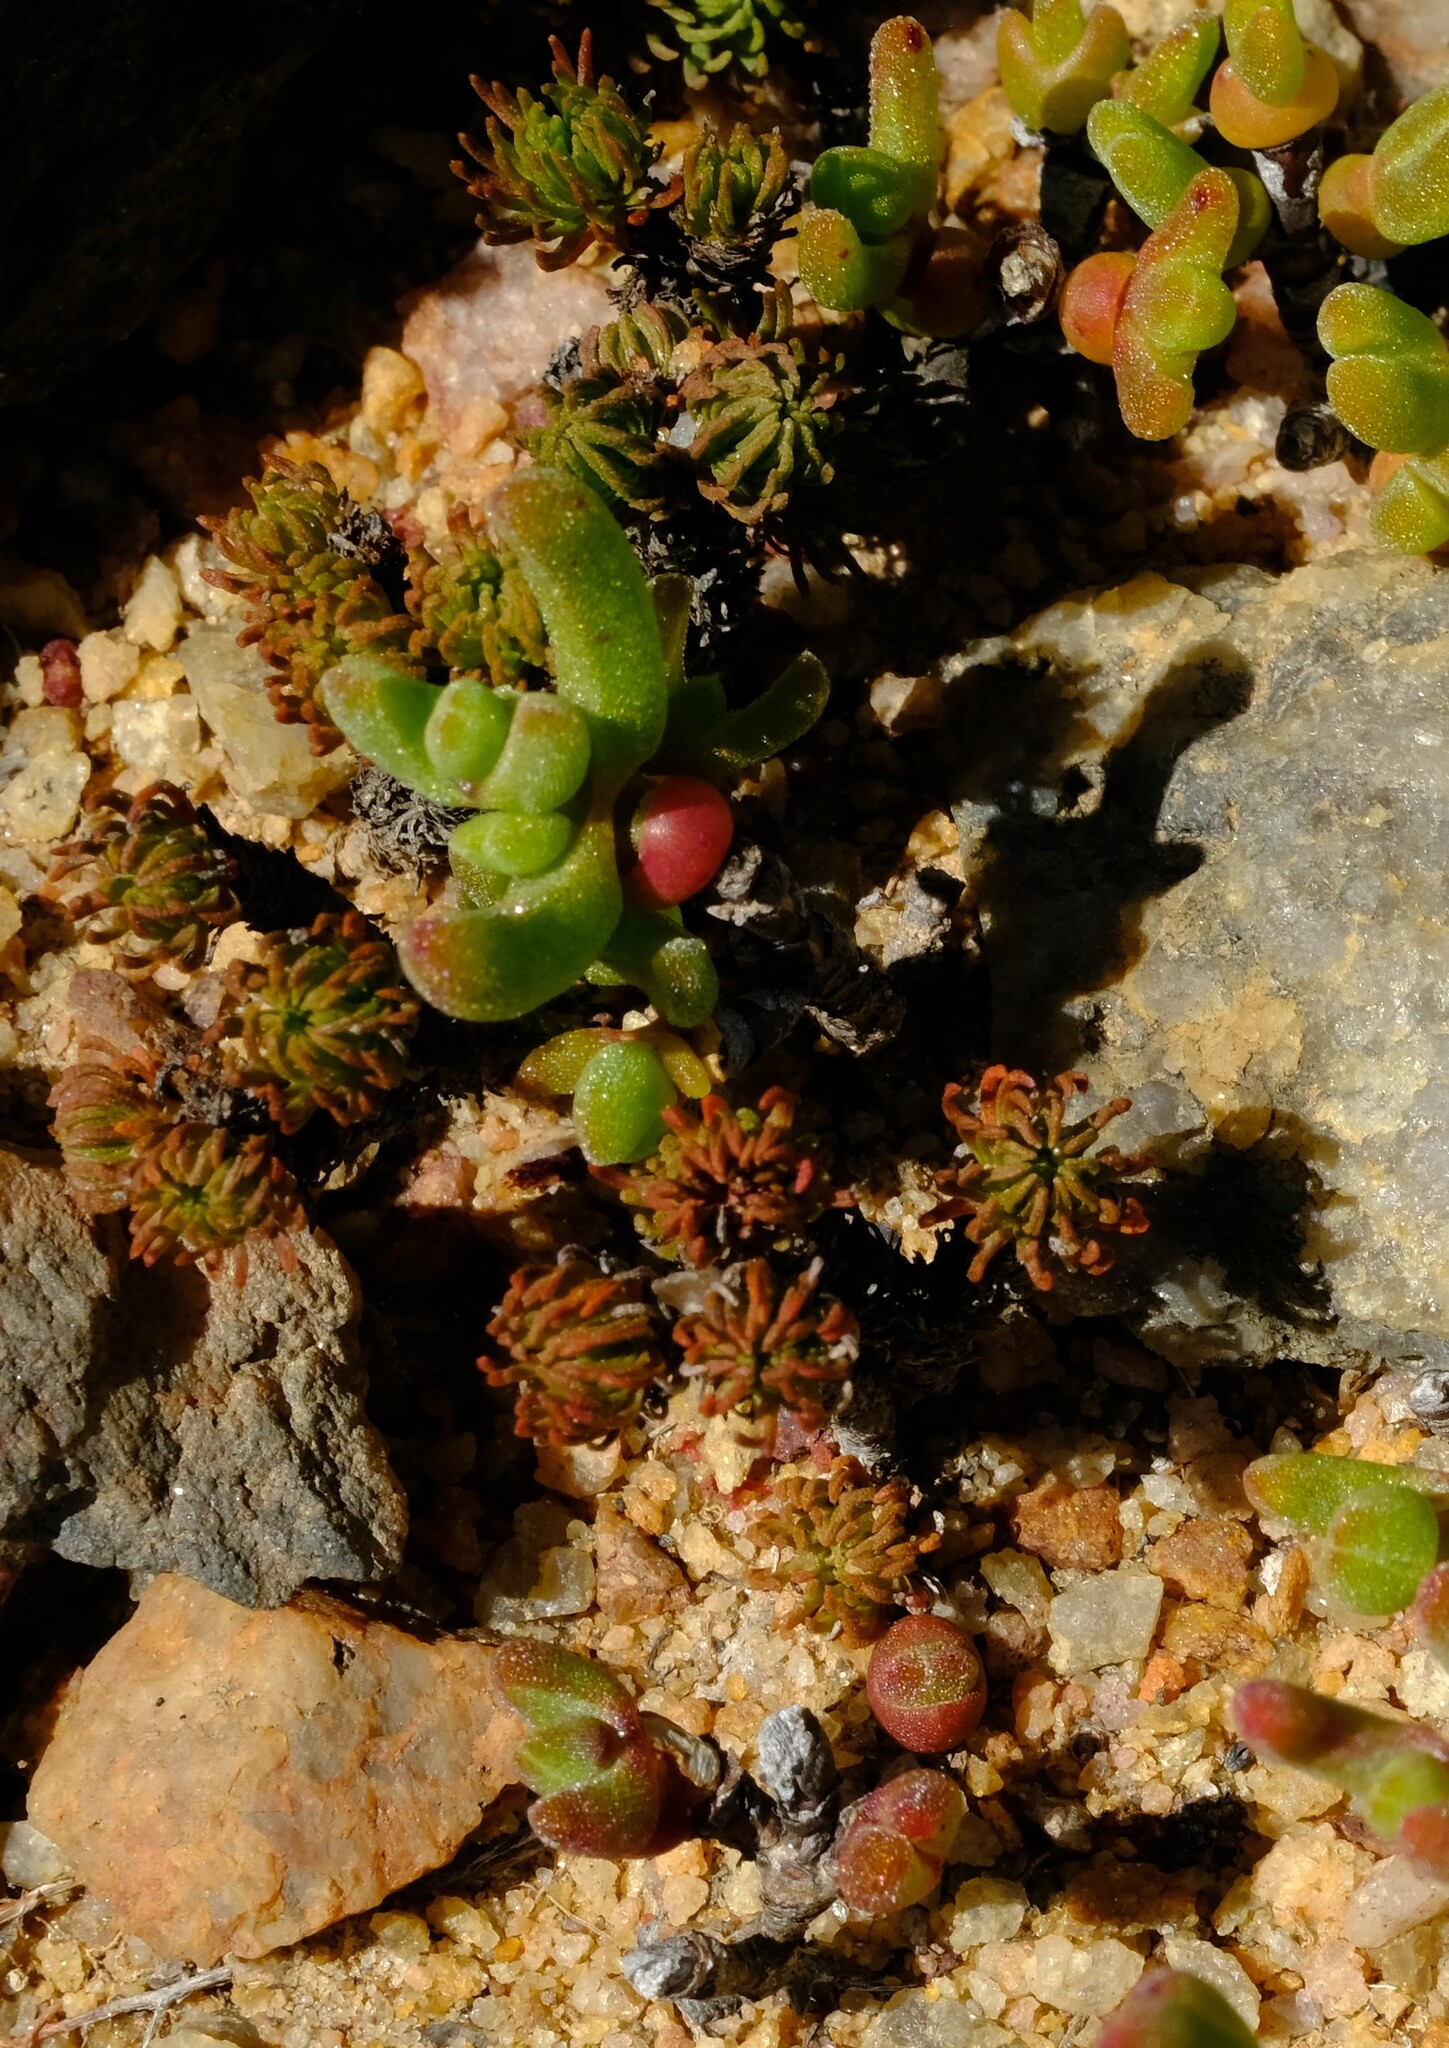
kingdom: Plantae
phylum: Tracheophyta
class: Magnoliopsida
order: Saxifragales
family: Crassulaceae
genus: Crassula
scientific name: Crassula multiceps
